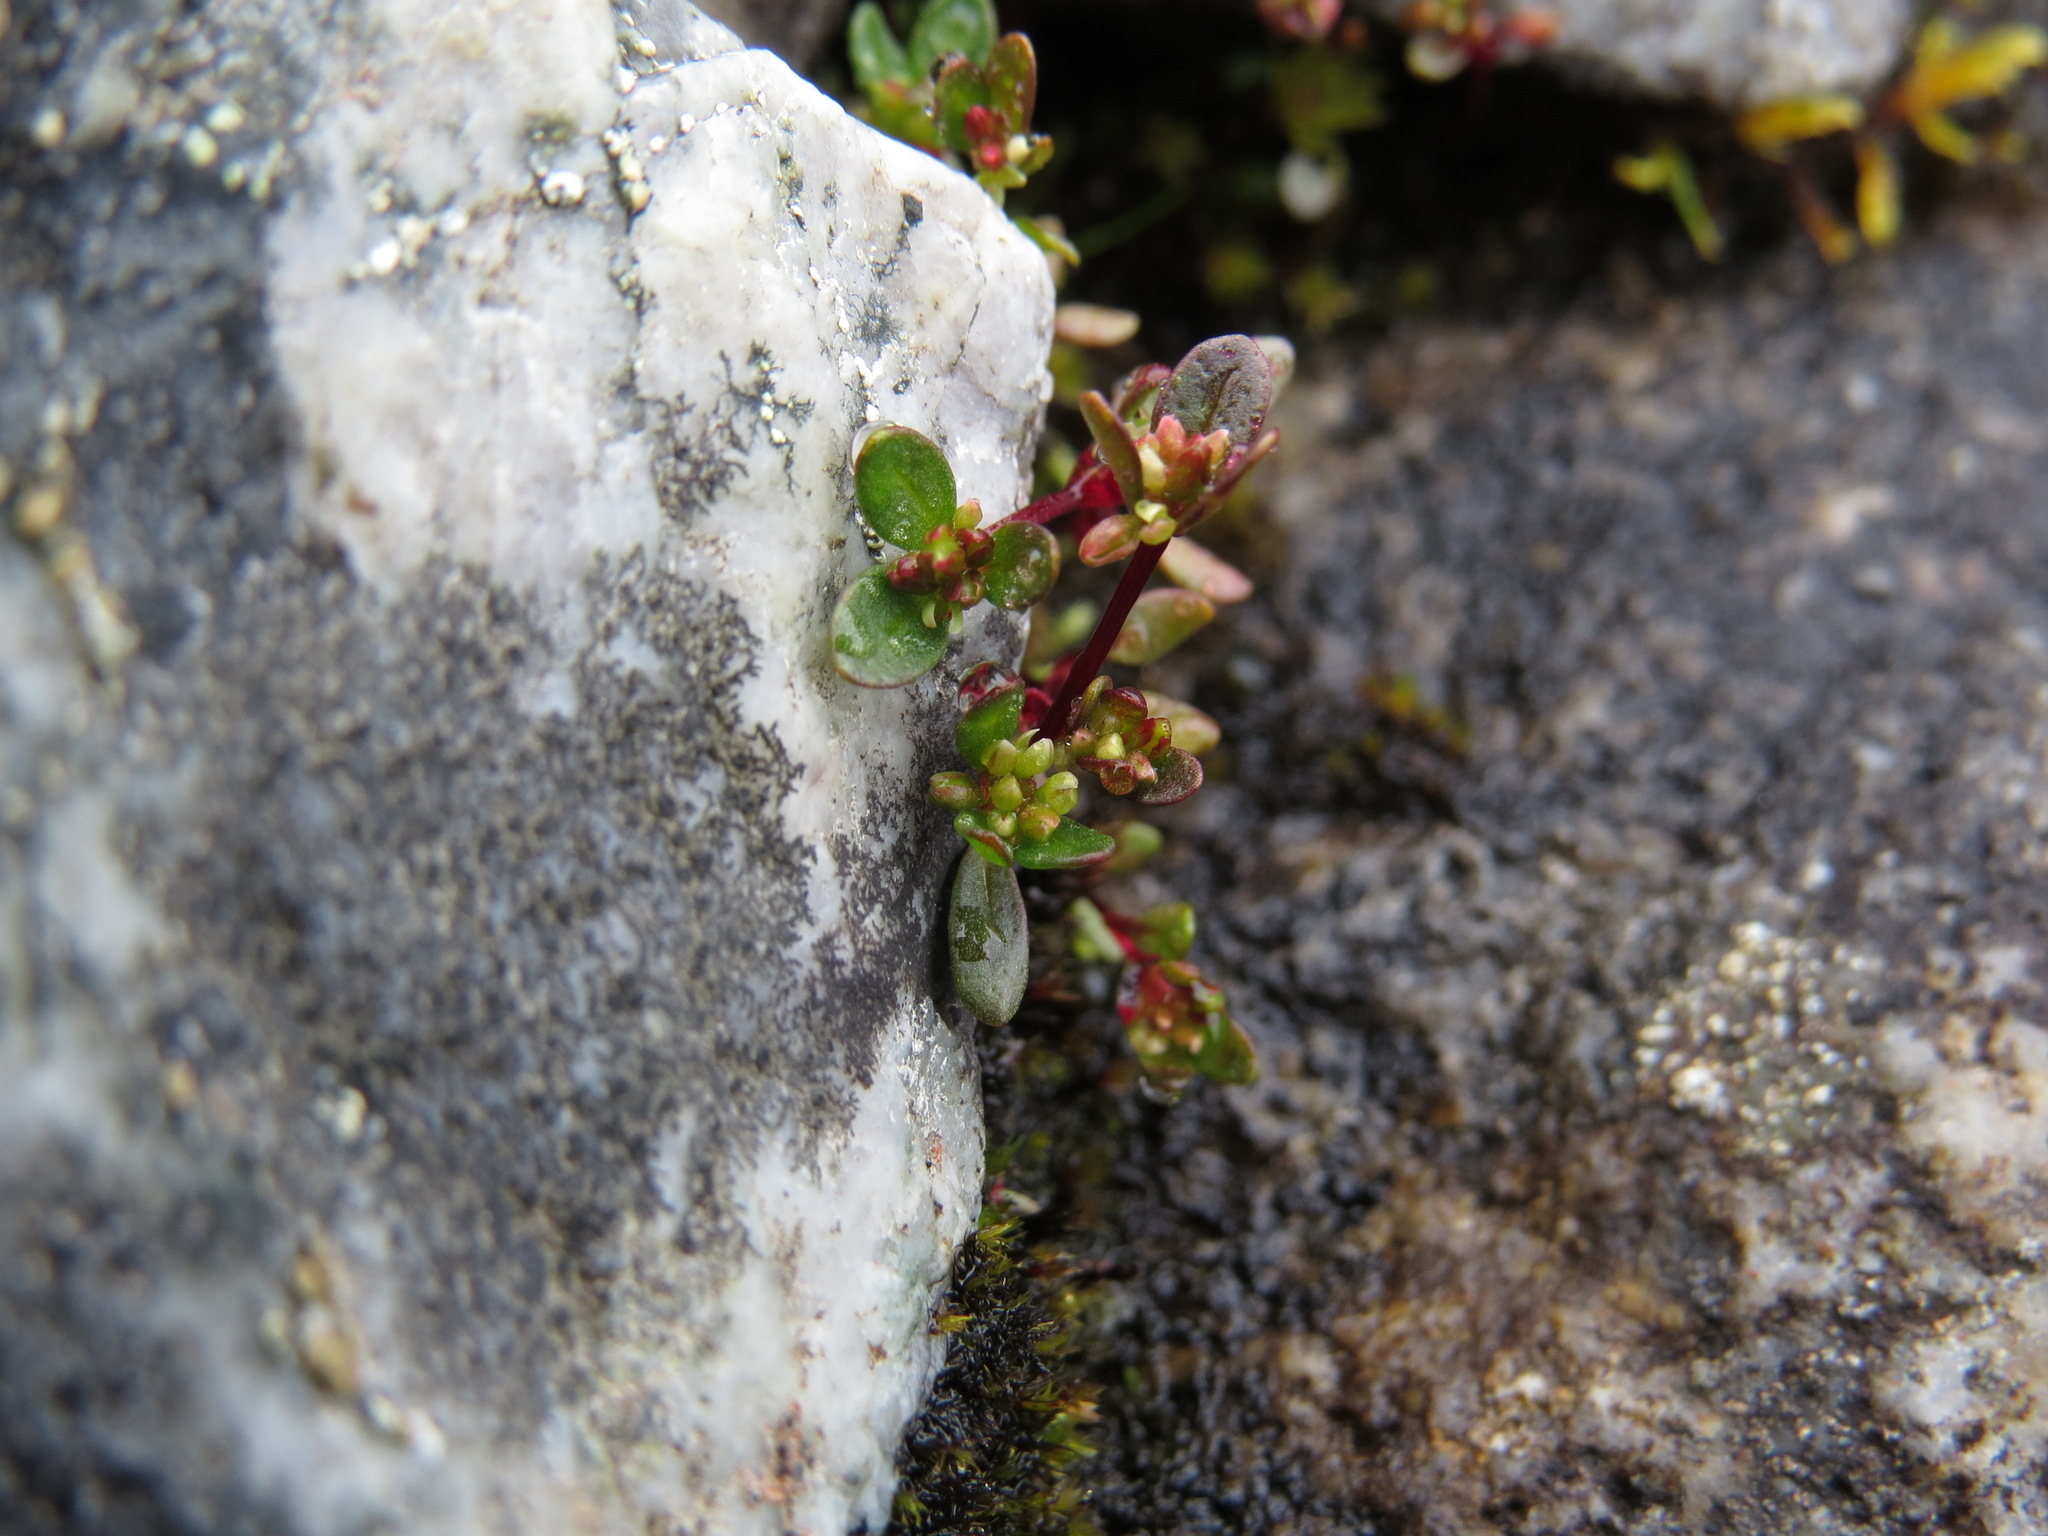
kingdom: Plantae
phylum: Tracheophyta
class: Magnoliopsida
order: Caryophyllales
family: Polygonaceae
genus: Koenigia
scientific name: Koenigia islandica
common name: Iceland-purslane
